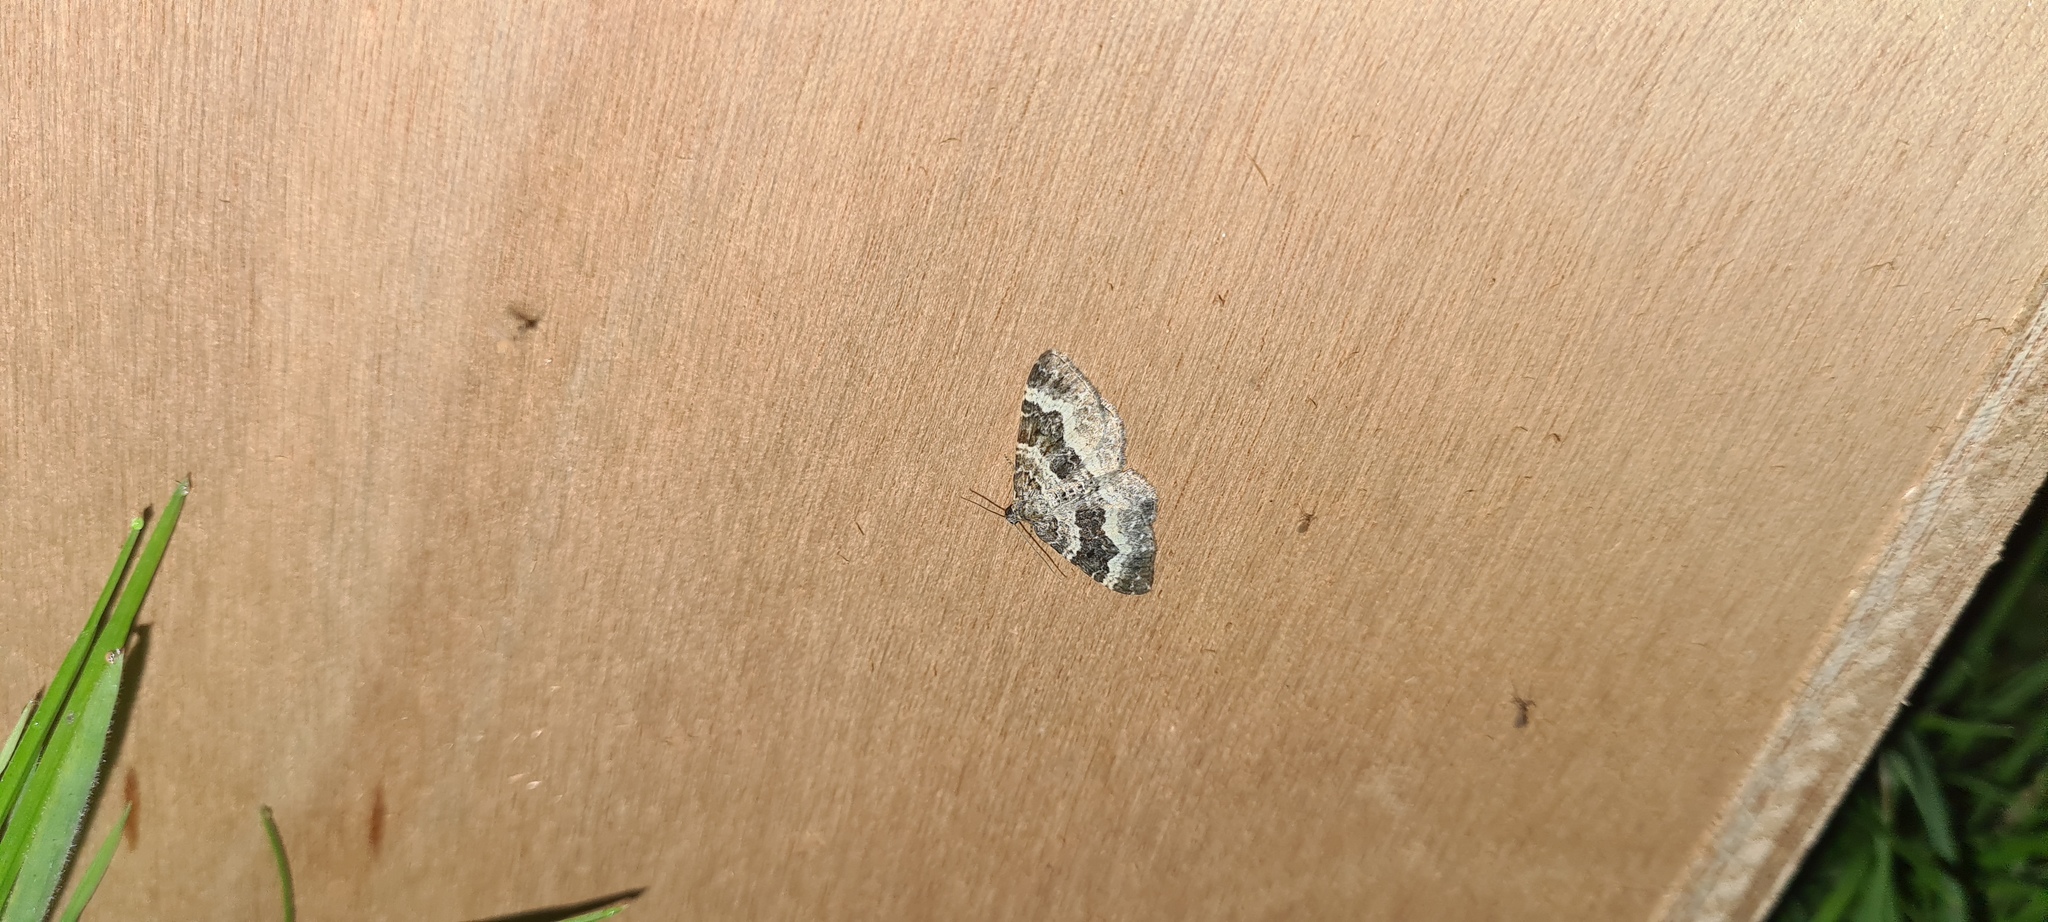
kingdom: Animalia
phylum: Arthropoda
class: Insecta
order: Lepidoptera
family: Geometridae
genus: Epirrhoe
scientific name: Epirrhoe alternata
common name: Common carpet
